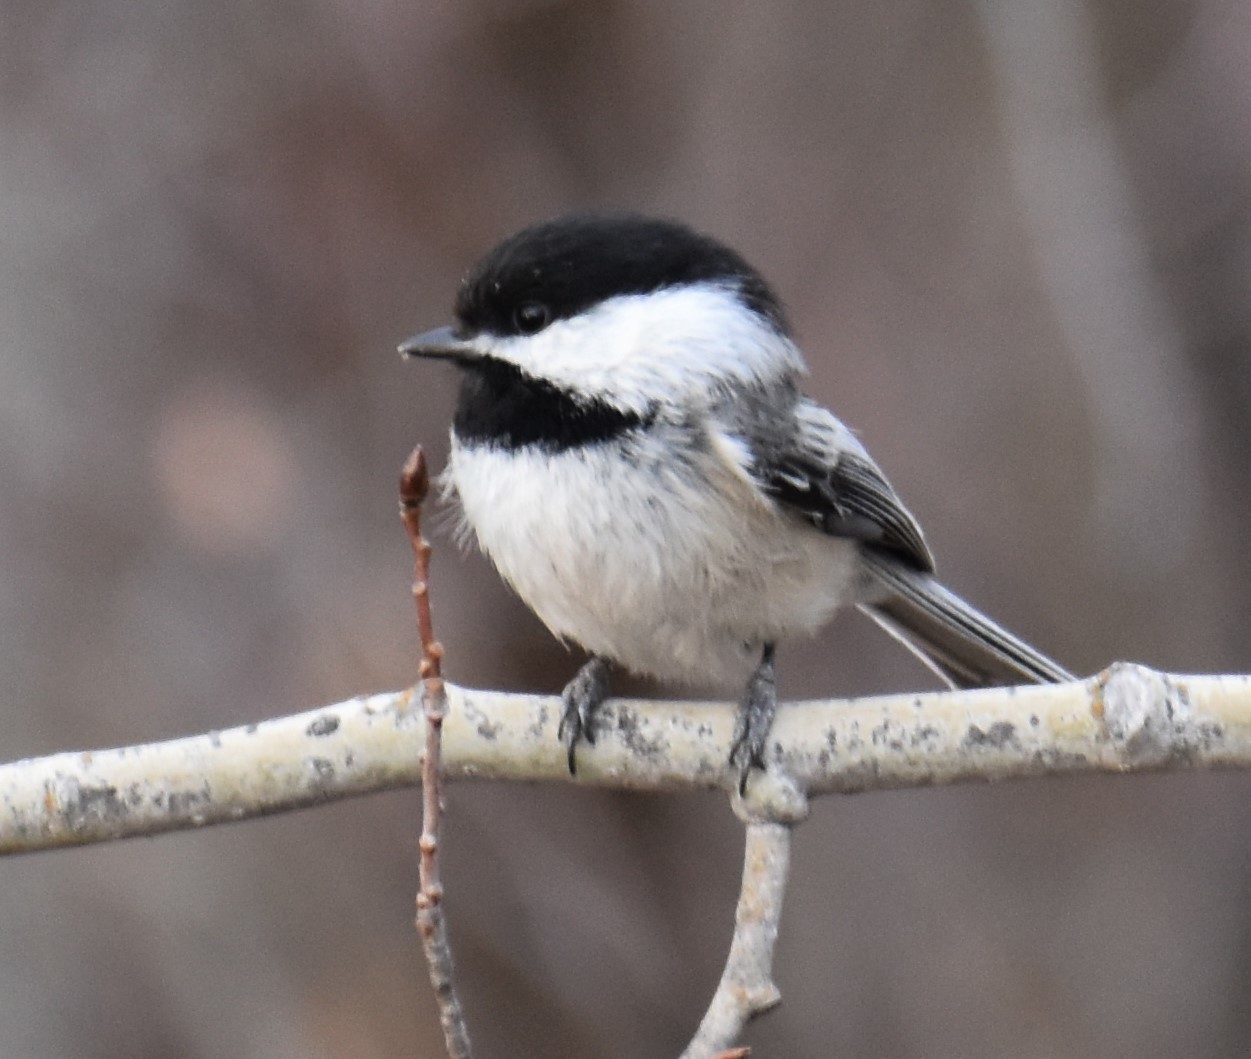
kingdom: Animalia
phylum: Chordata
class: Aves
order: Passeriformes
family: Paridae
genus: Poecile
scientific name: Poecile atricapillus
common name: Black-capped chickadee
